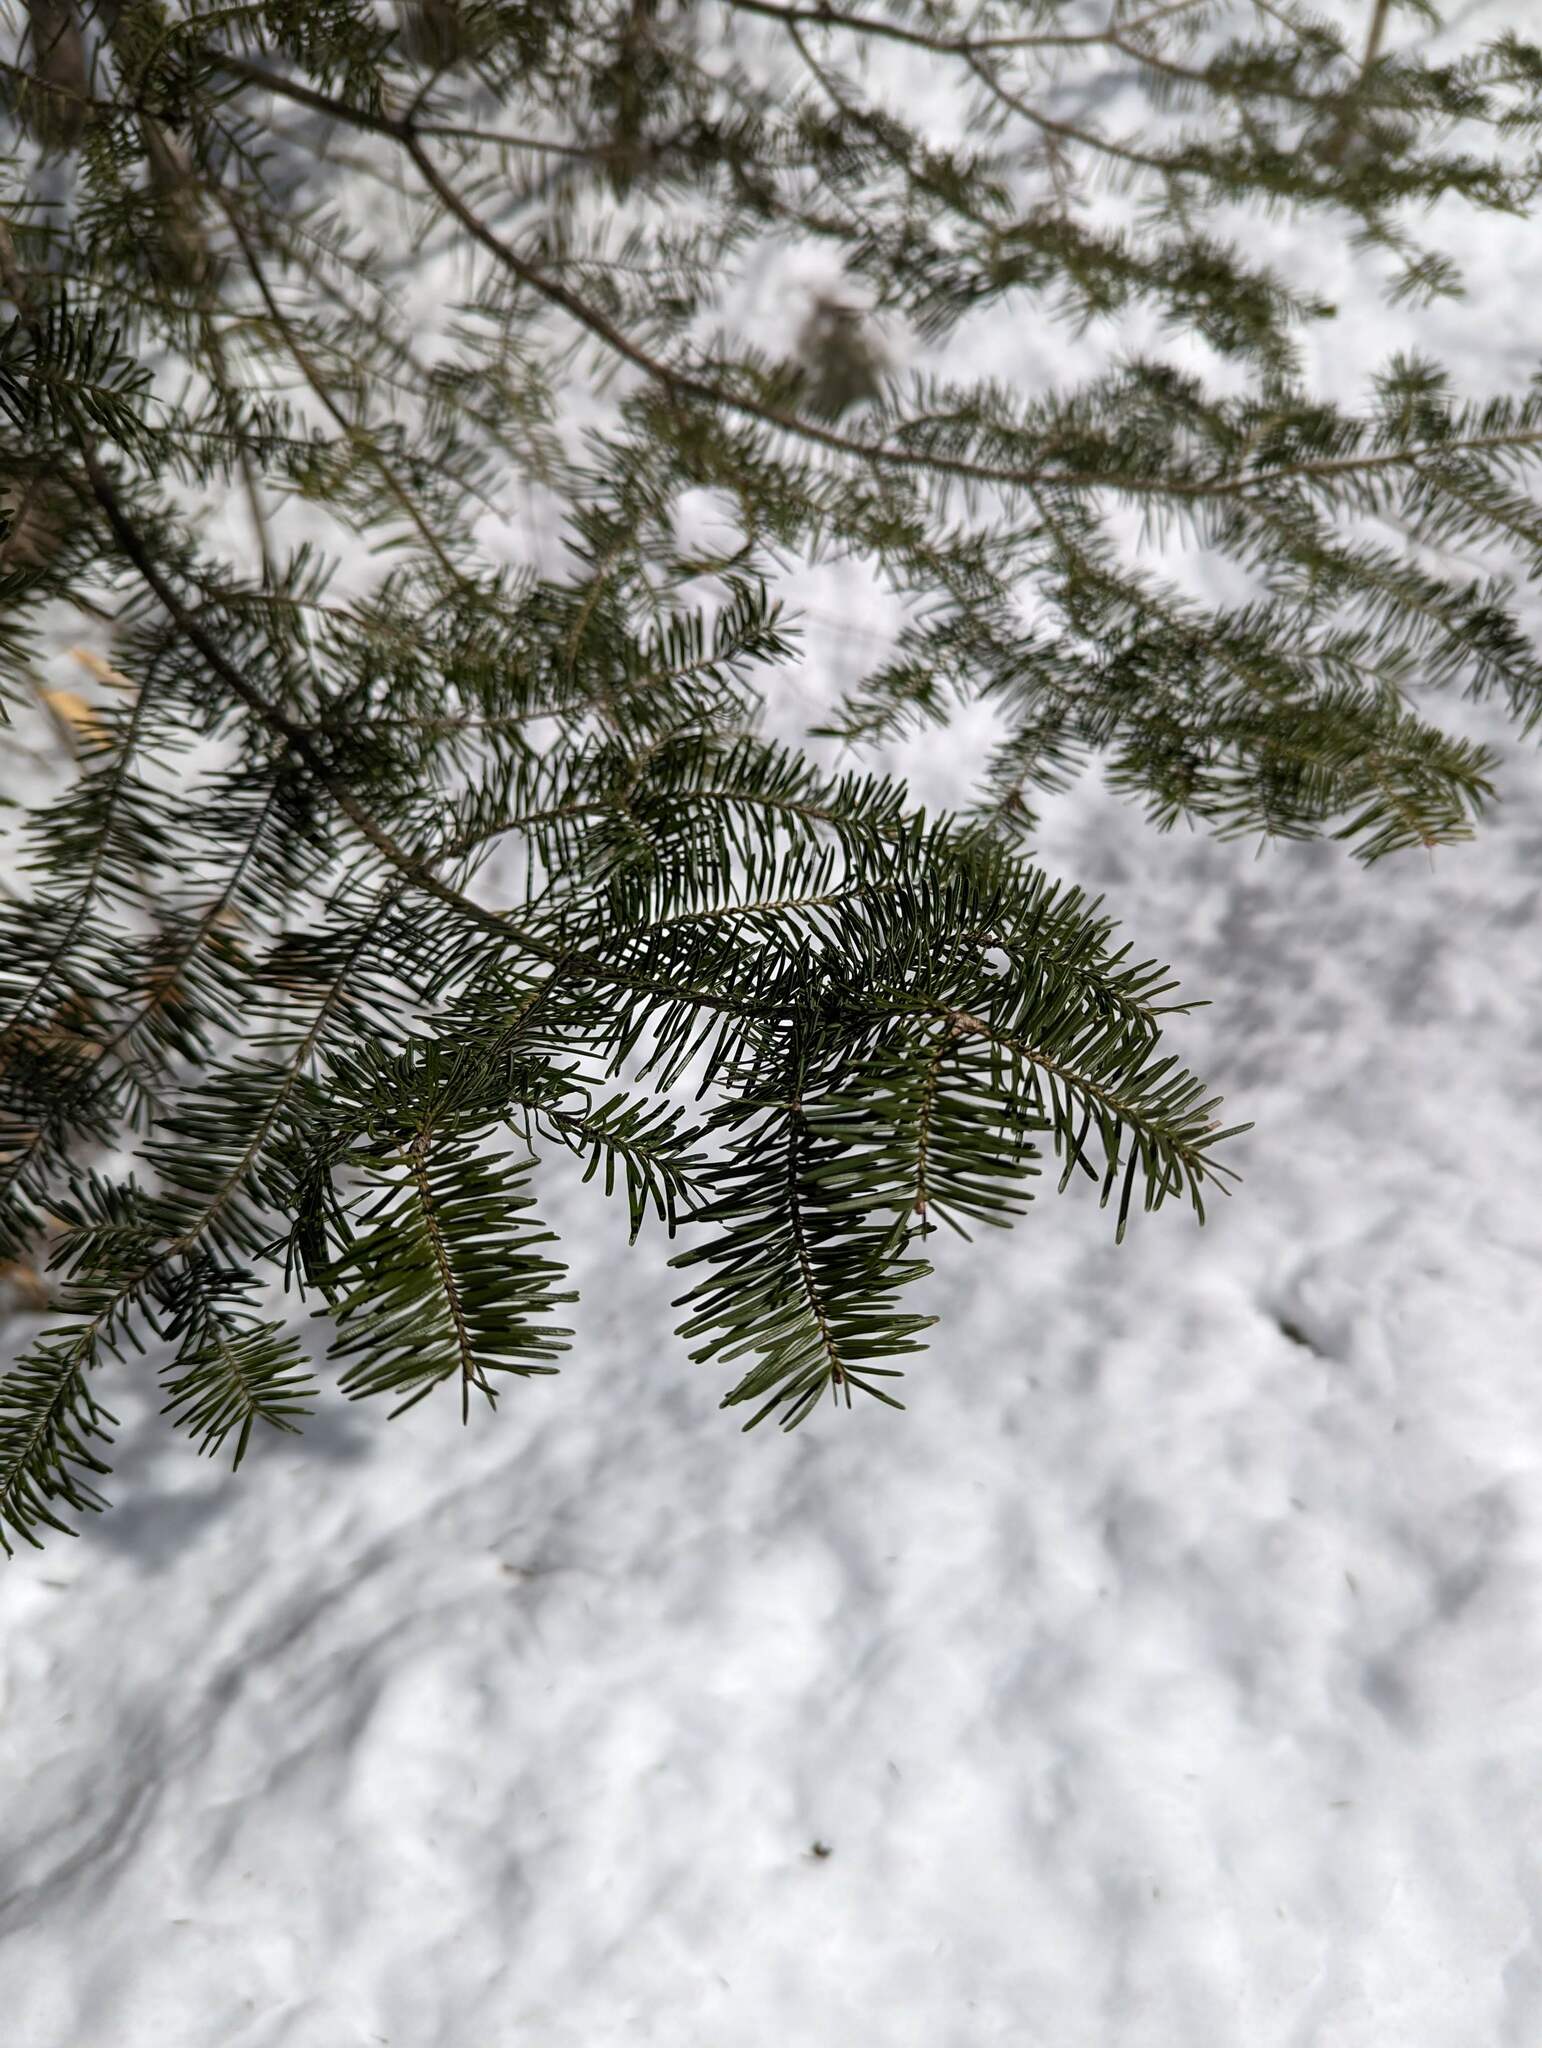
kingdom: Plantae
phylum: Tracheophyta
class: Pinopsida
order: Pinales
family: Pinaceae
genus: Abies
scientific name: Abies balsamea
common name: Balsam fir
